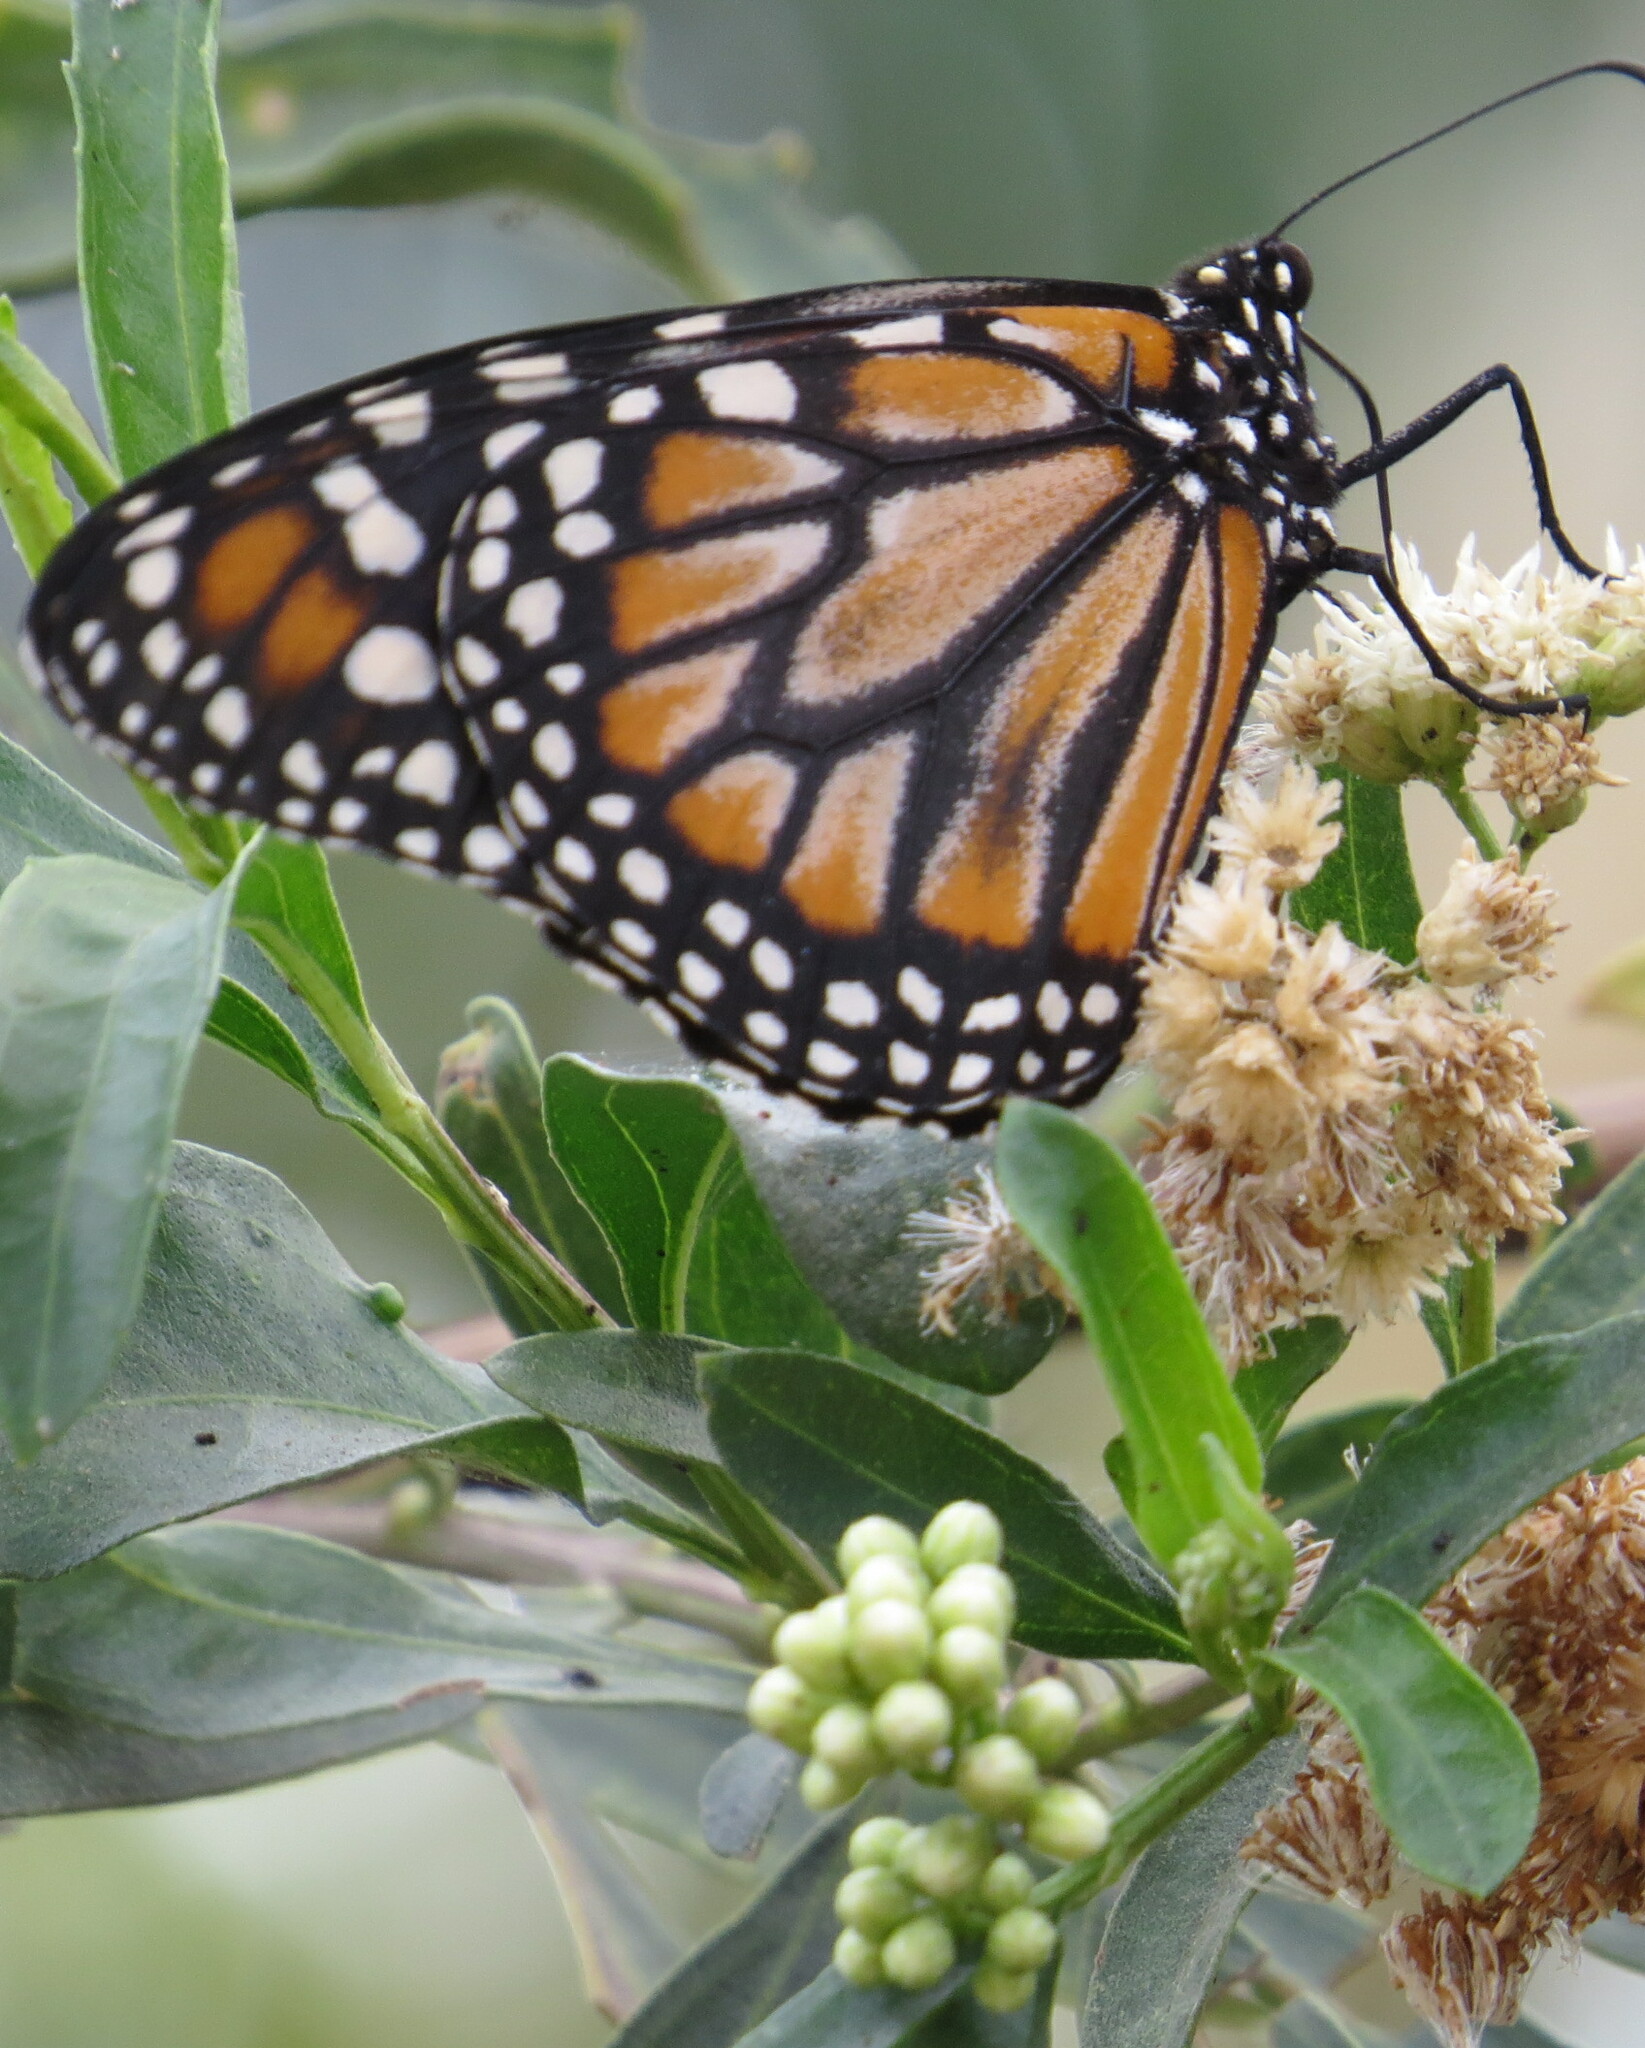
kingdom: Animalia
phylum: Arthropoda
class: Insecta
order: Lepidoptera
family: Nymphalidae
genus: Danaus
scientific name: Danaus erippus
